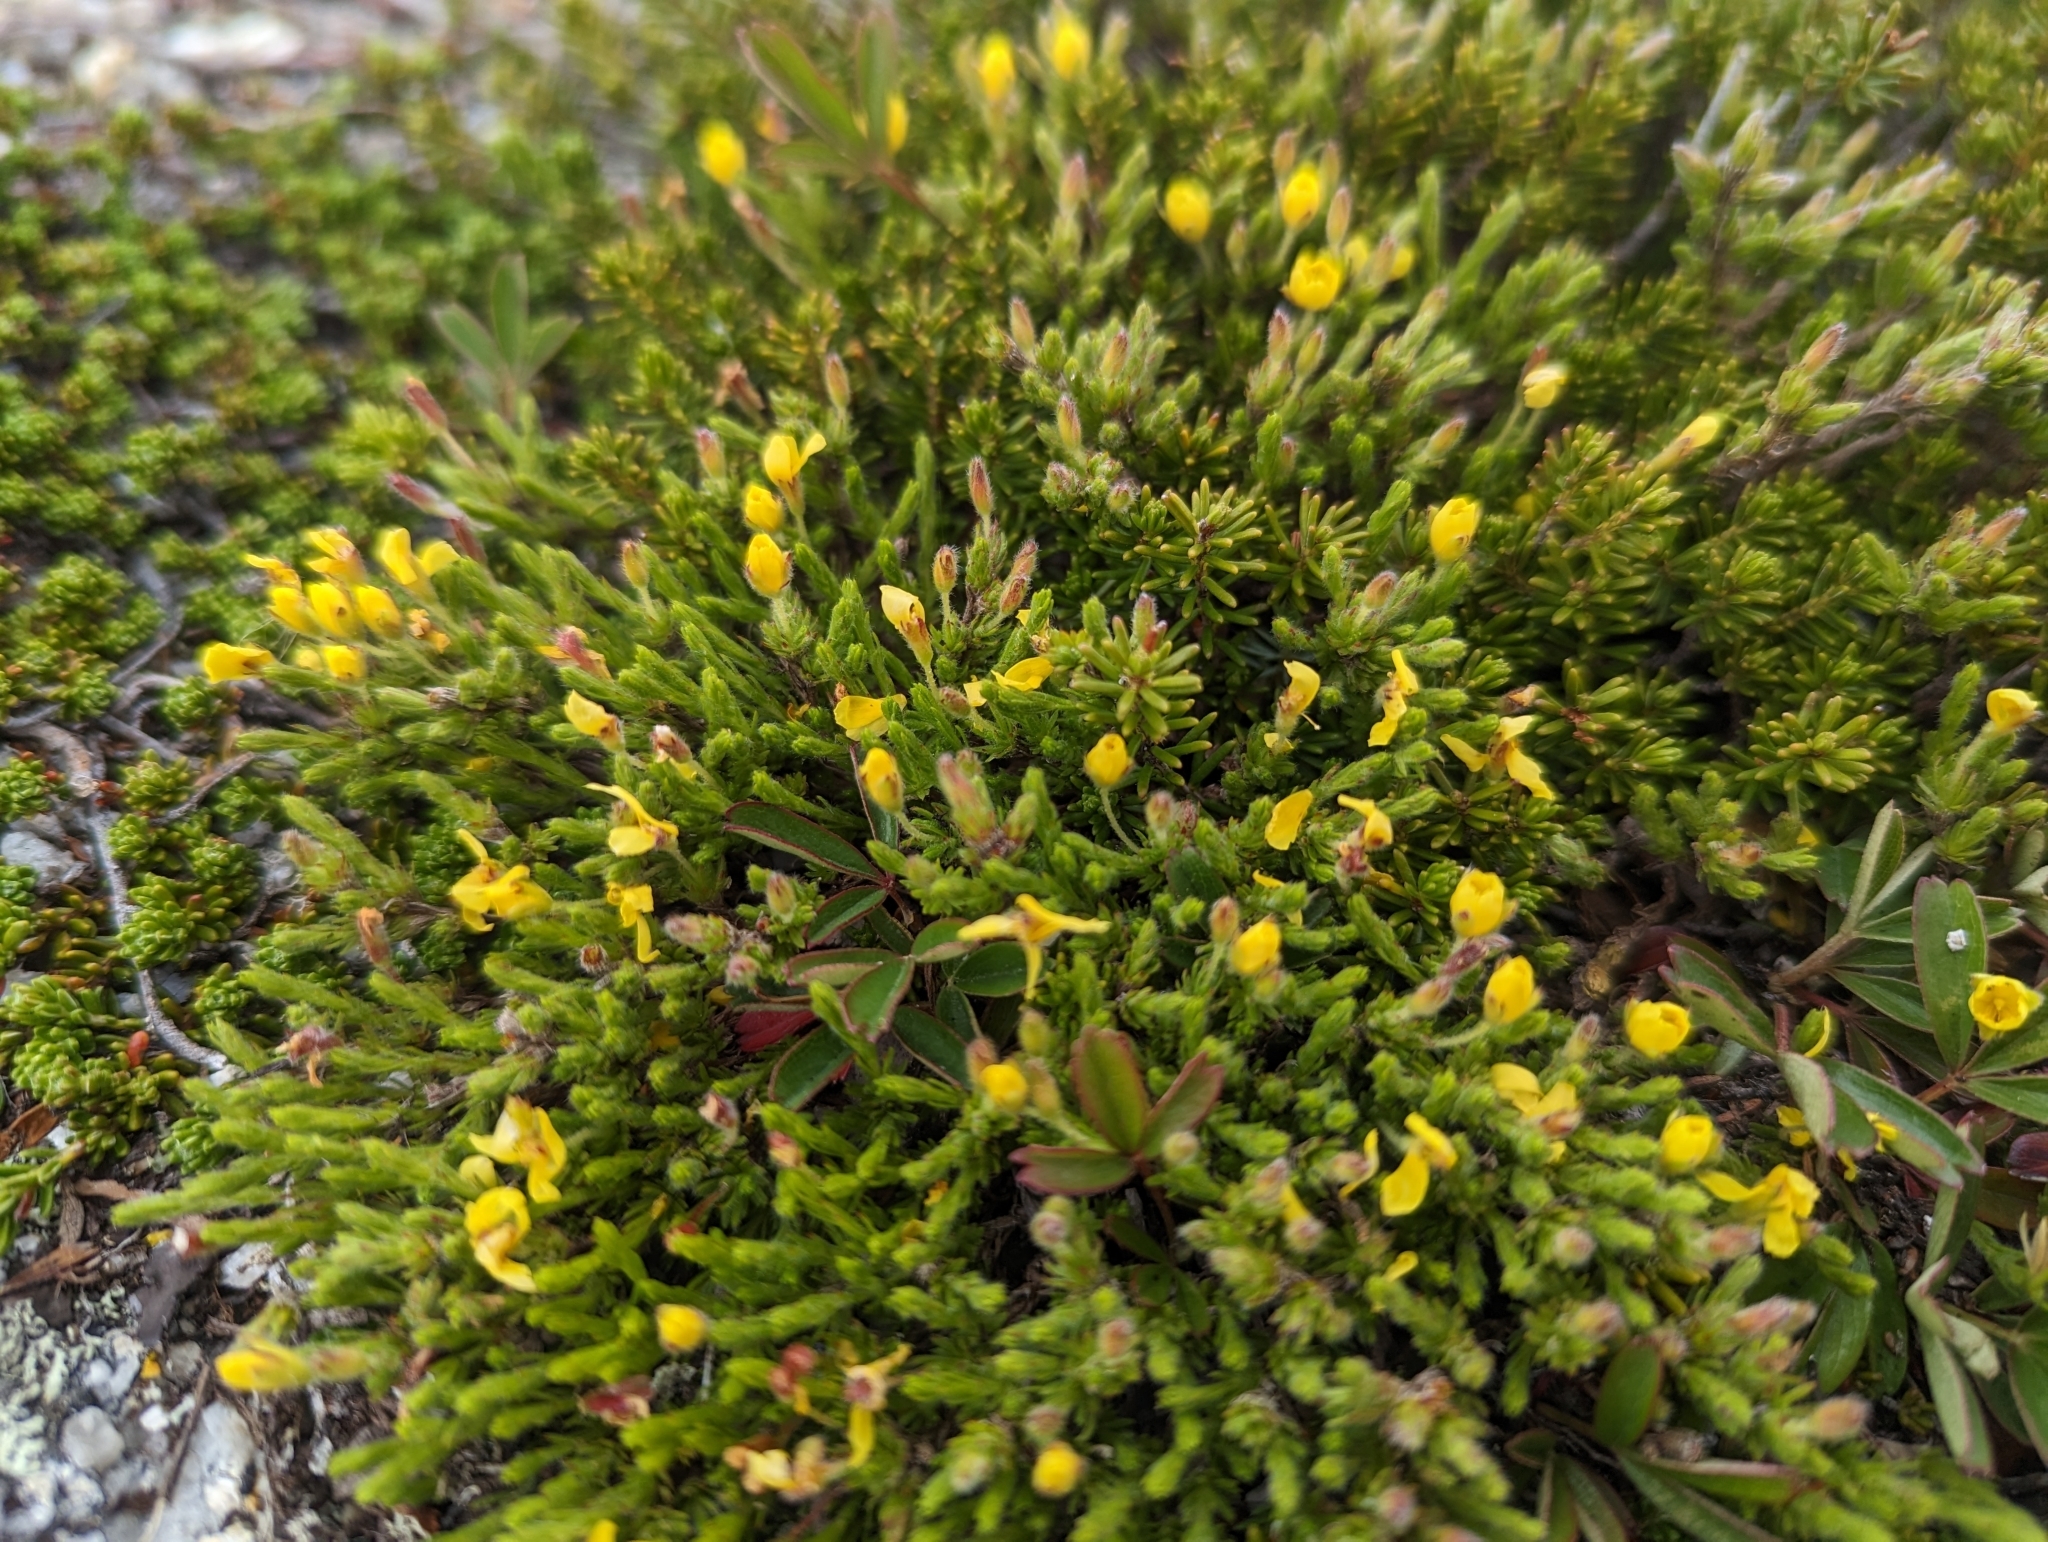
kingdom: Plantae
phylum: Tracheophyta
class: Magnoliopsida
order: Malvales
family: Cistaceae
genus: Hudsonia
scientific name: Hudsonia ericoides
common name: Golden-heather
